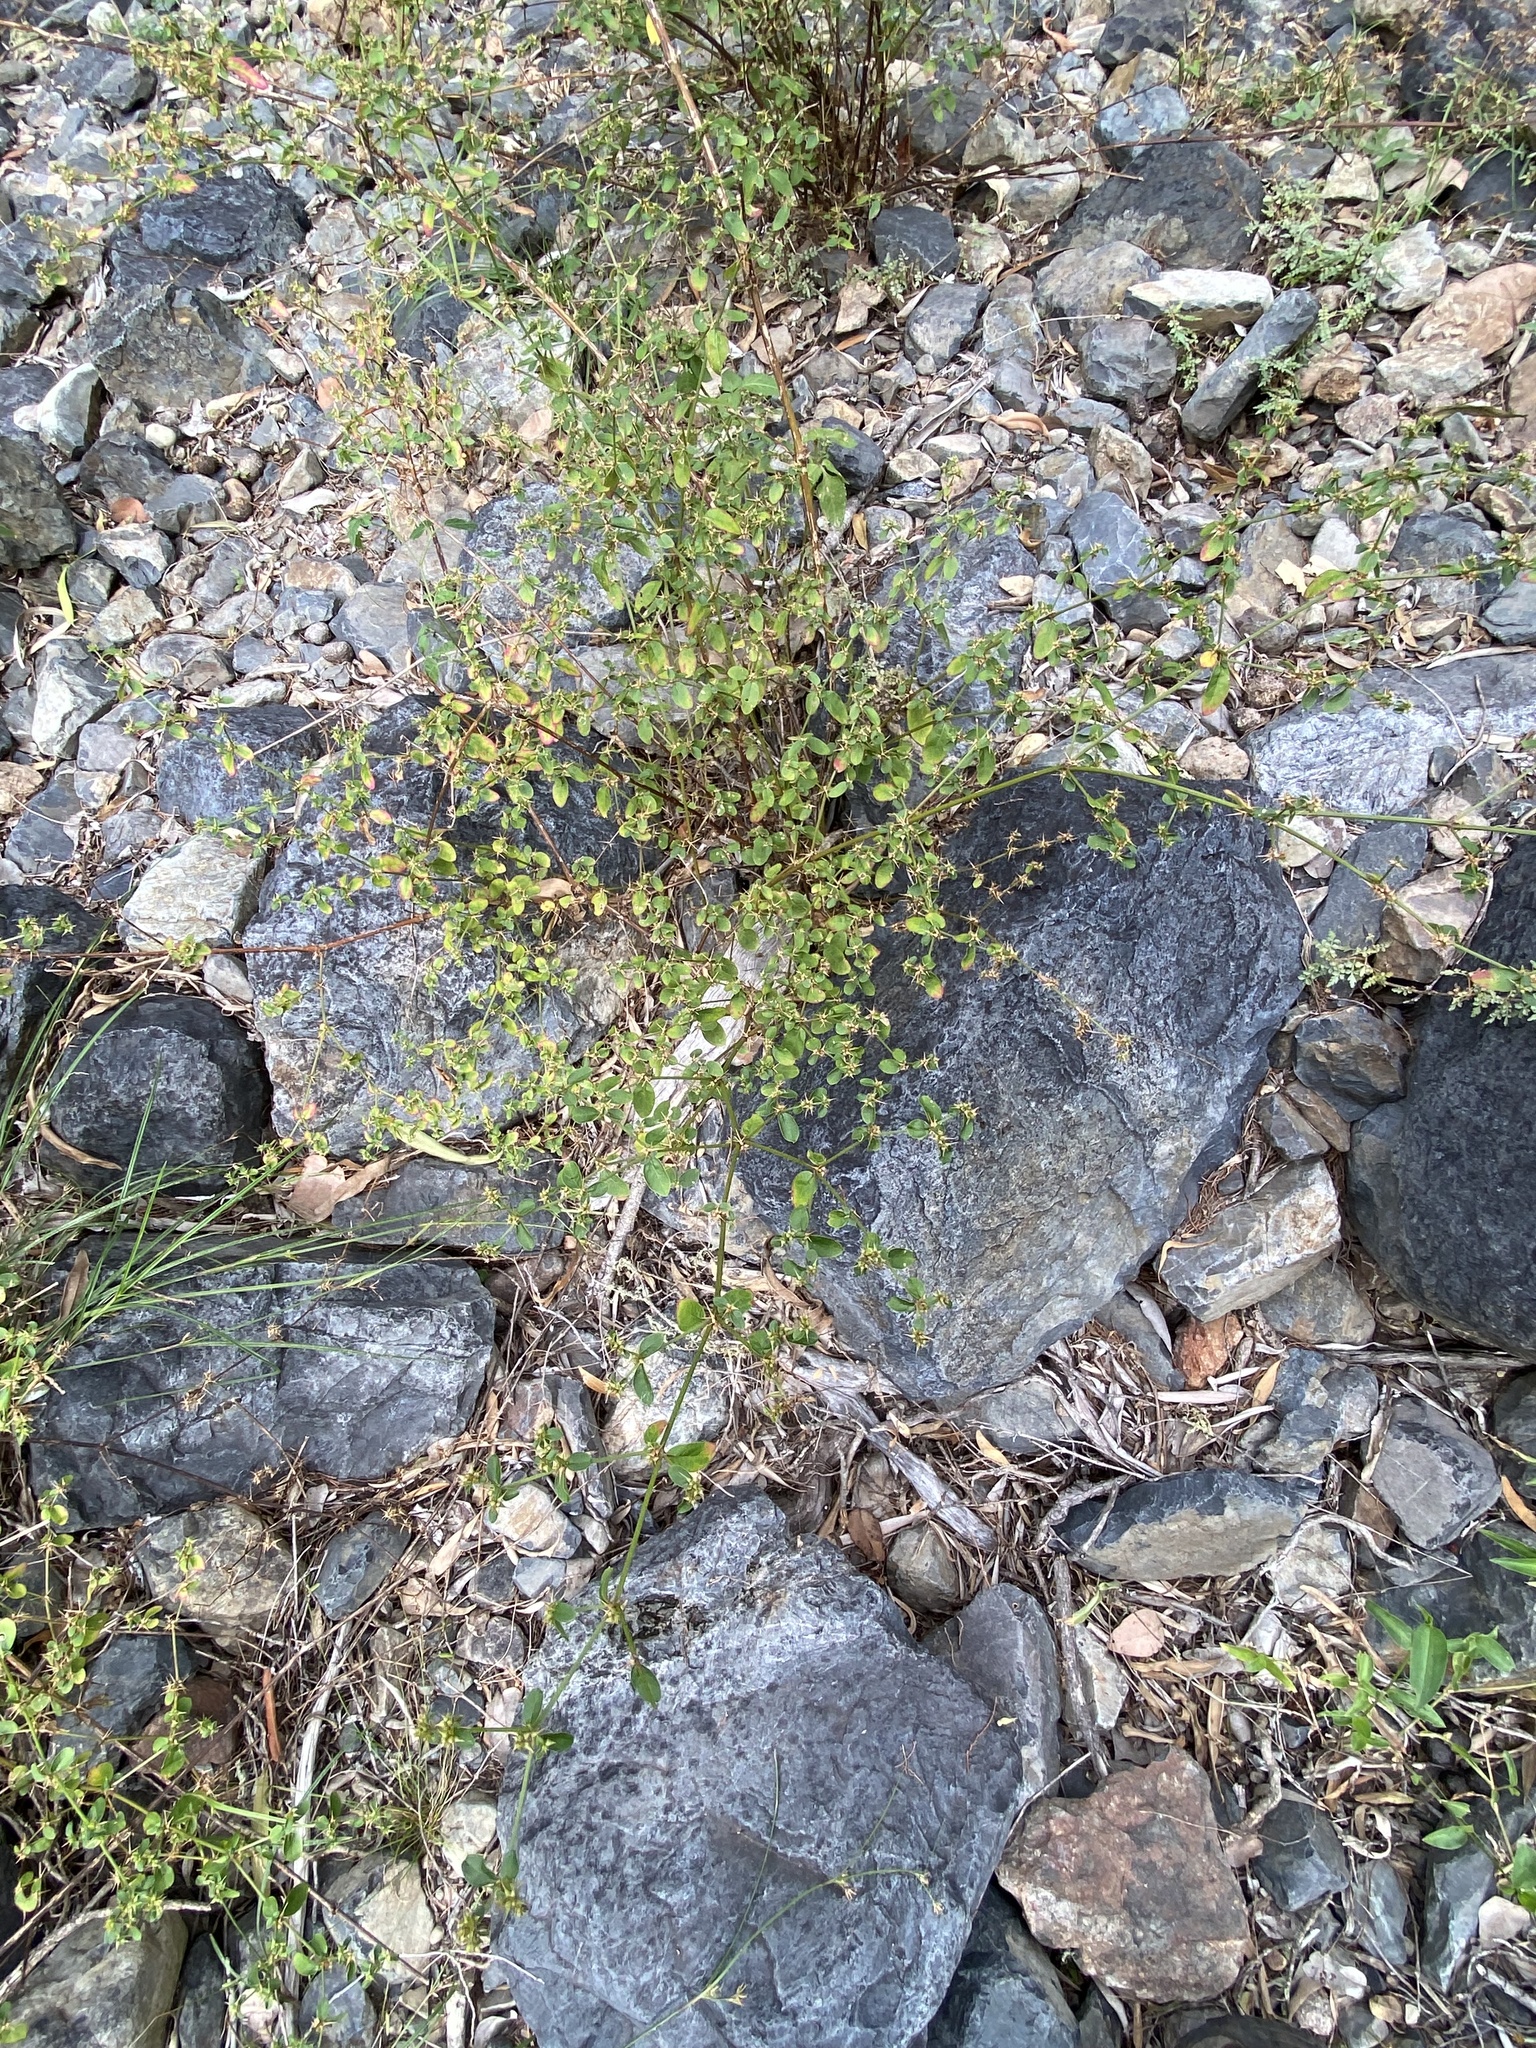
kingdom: Plantae
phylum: Tracheophyta
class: Magnoliopsida
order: Caryophyllales
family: Amaranthaceae
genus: Nyssanthes
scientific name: Nyssanthes diffusa
